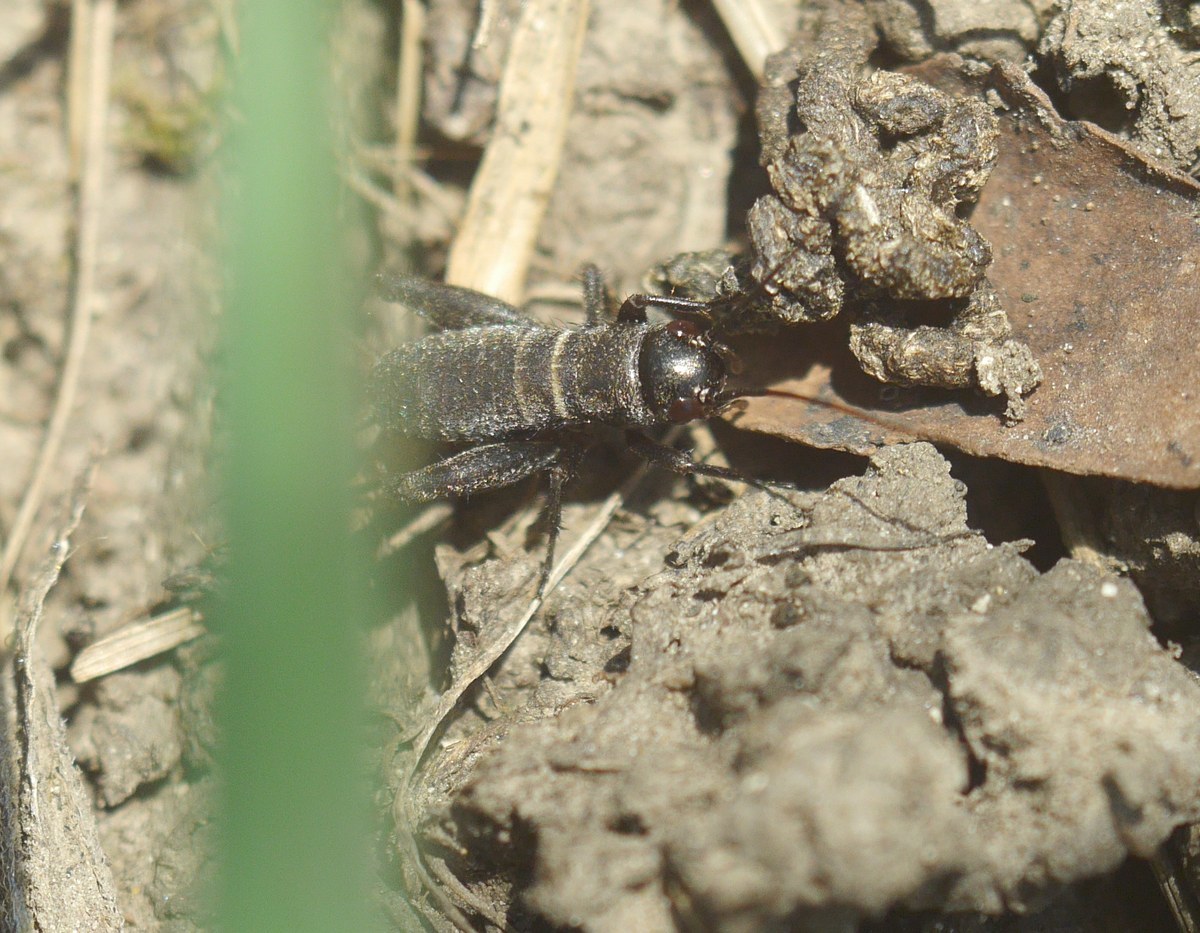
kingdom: Animalia
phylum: Arthropoda
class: Insecta
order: Orthoptera
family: Gryllidae
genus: Melanogryllus
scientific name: Melanogryllus desertus
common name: Desert cricket
